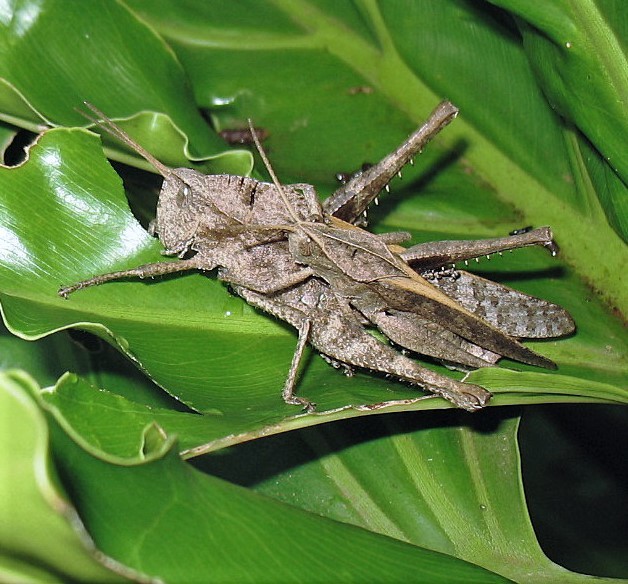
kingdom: Animalia
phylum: Arthropoda
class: Insecta
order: Orthoptera
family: Romaleidae
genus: Xyleus
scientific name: Xyleus discoideus
